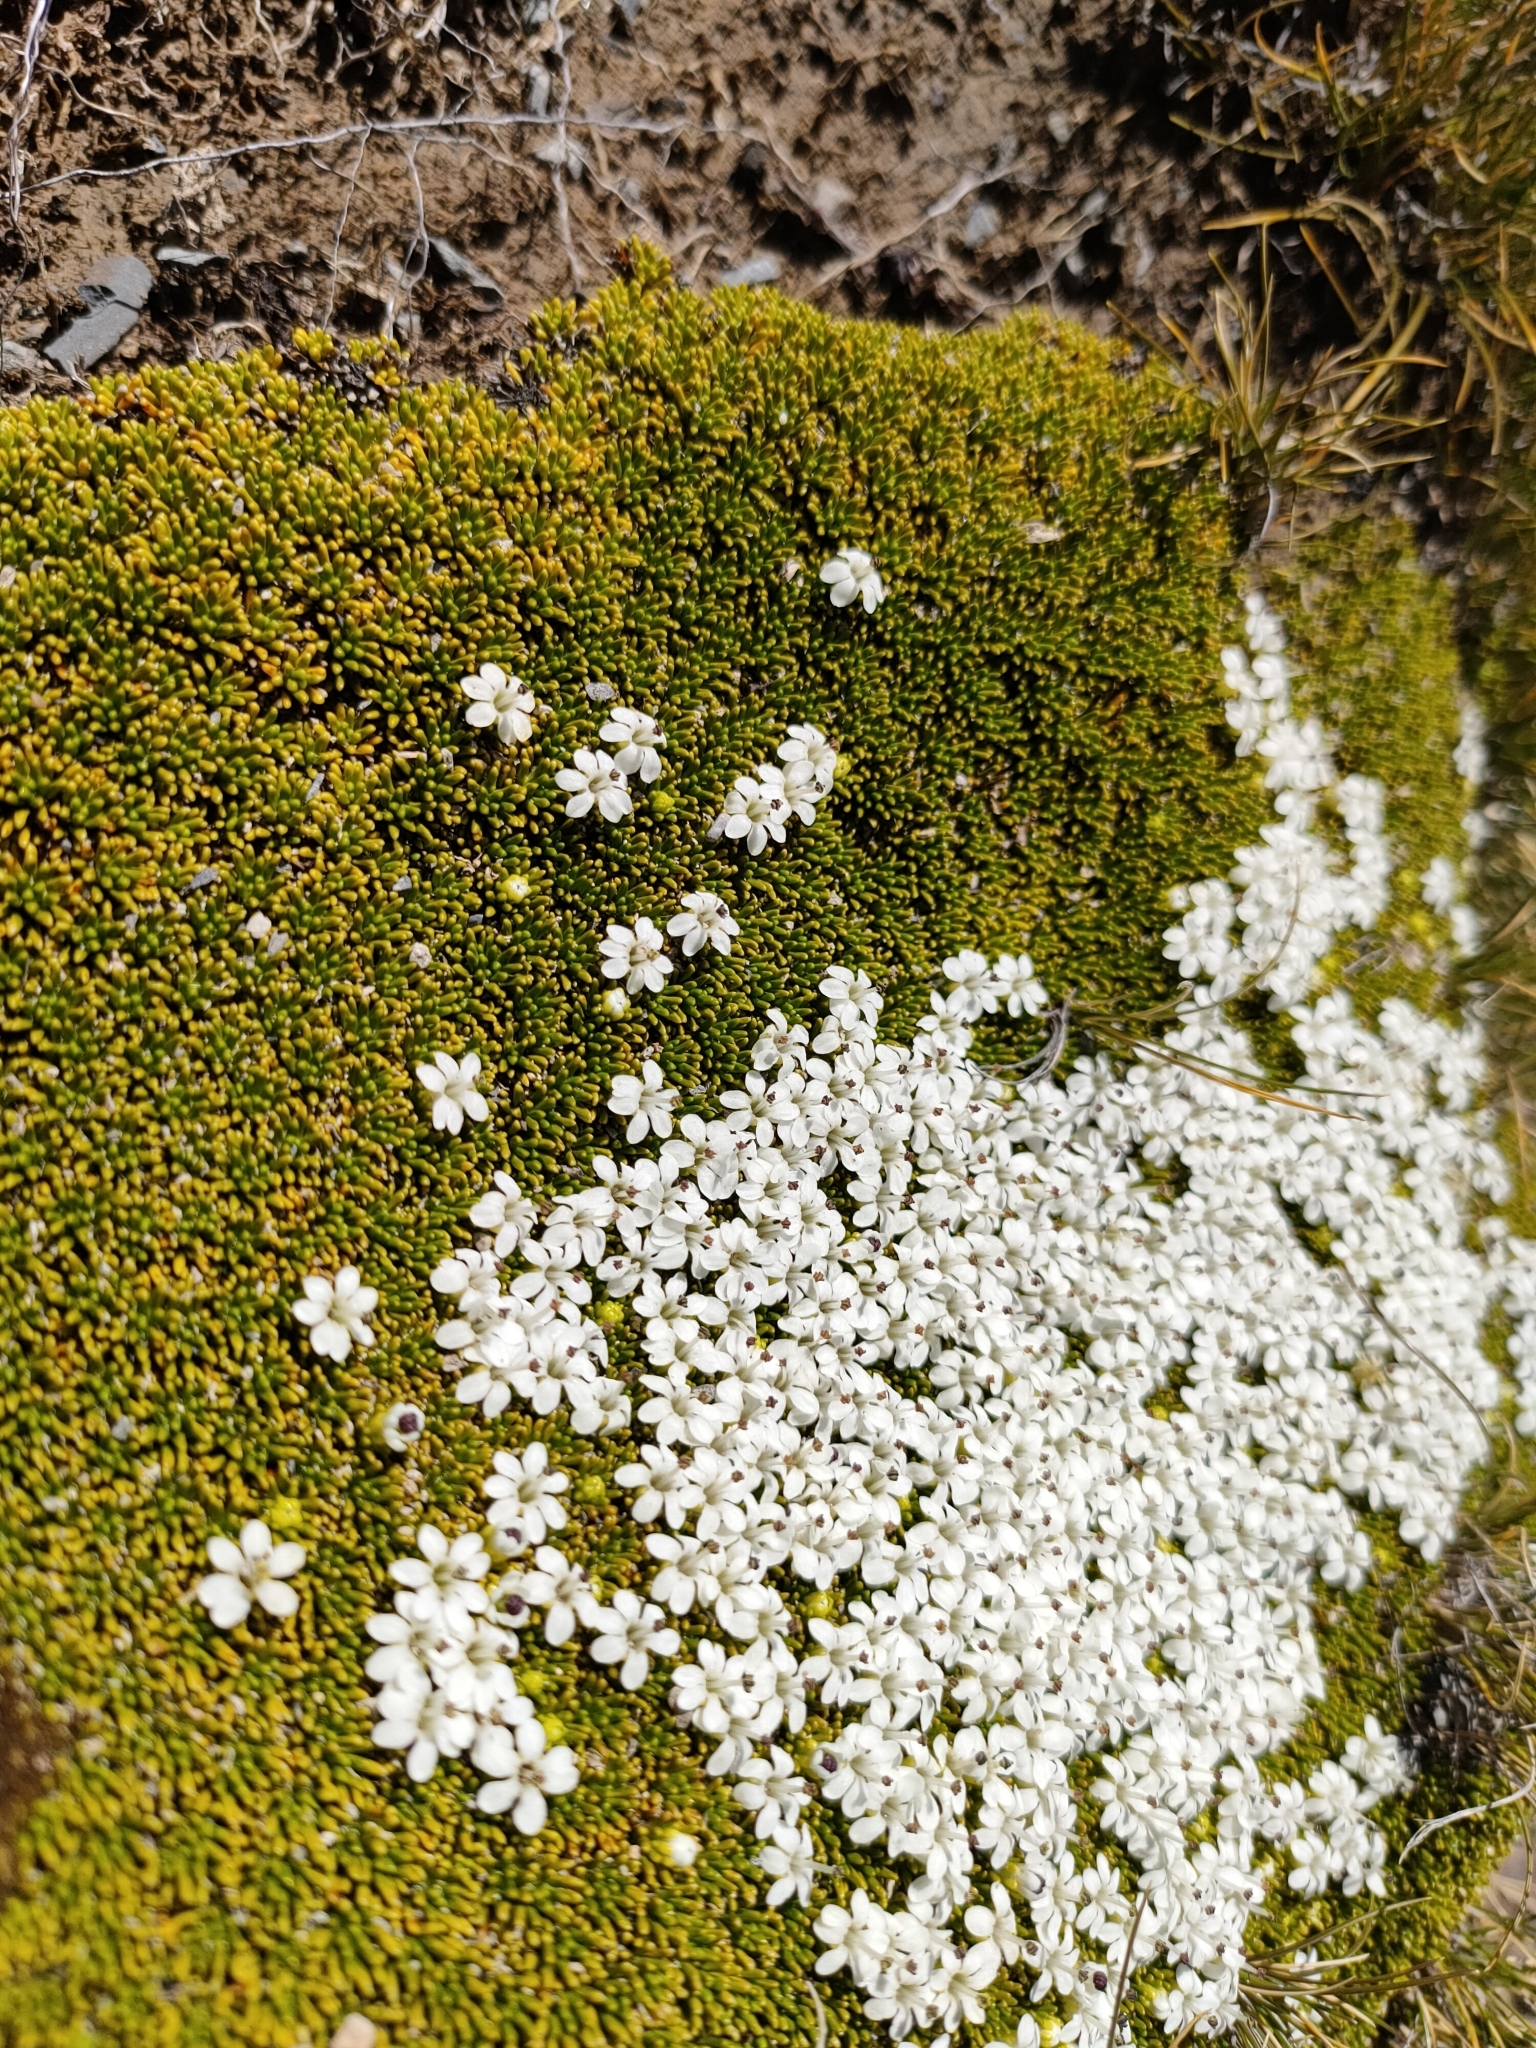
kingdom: Plantae
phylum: Tracheophyta
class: Magnoliopsida
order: Asterales
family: Stylidiaceae
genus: Phyllachne
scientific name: Phyllachne colensoi
